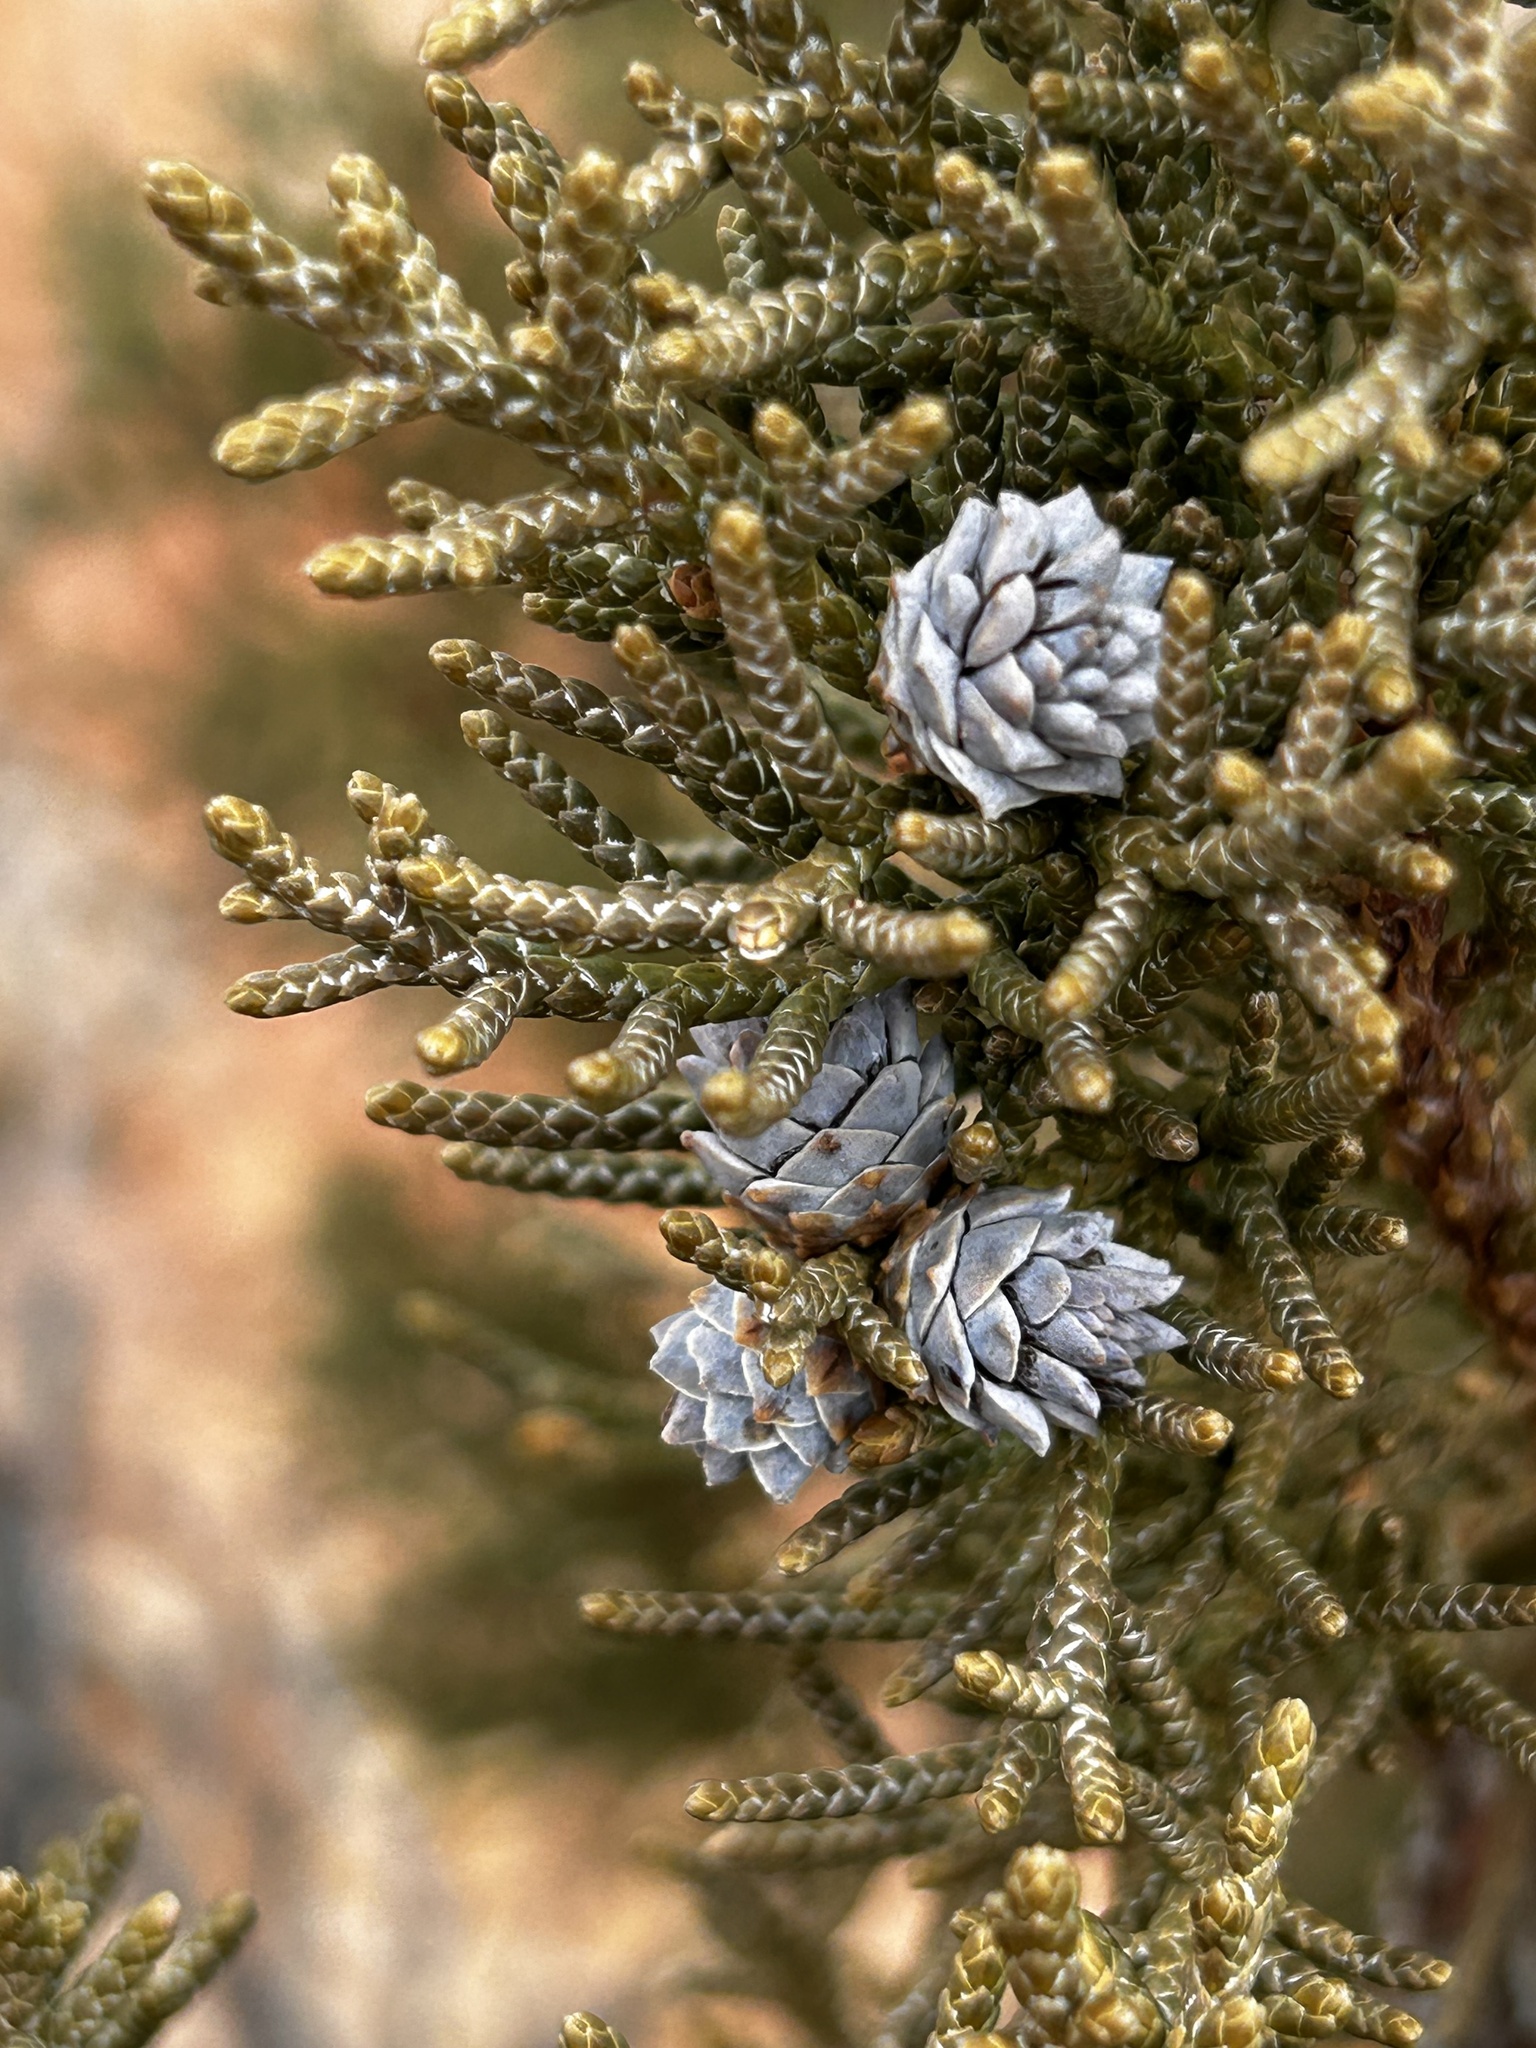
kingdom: Plantae
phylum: Tracheophyta
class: Pinopsida
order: Pinales
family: Cupressaceae
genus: Juniperus
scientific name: Juniperus osteosperma
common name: Utah juniper
